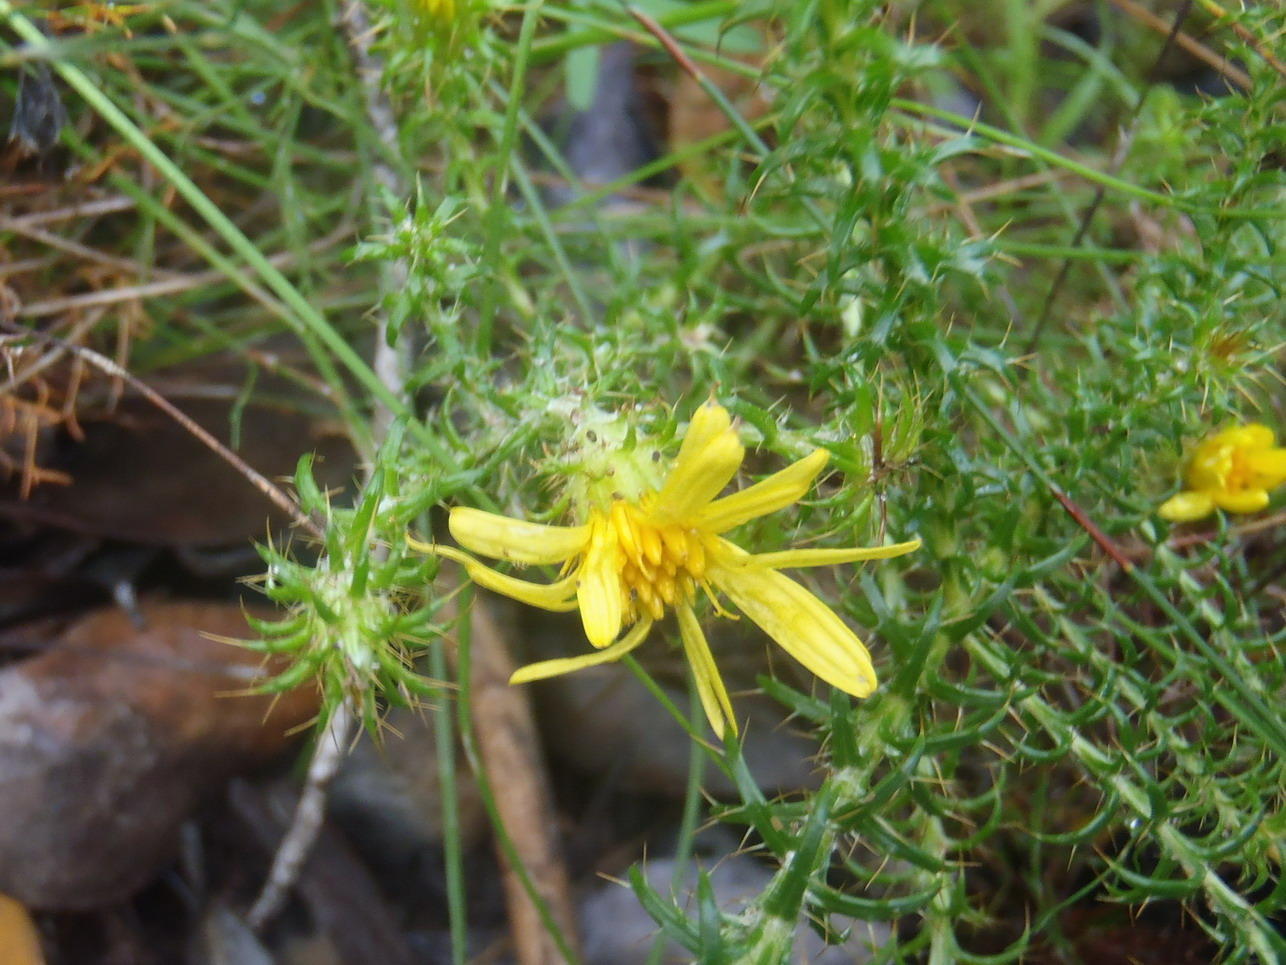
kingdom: Plantae
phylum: Tracheophyta
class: Magnoliopsida
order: Asterales
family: Asteraceae
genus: Cullumia
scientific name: Cullumia decurrens
